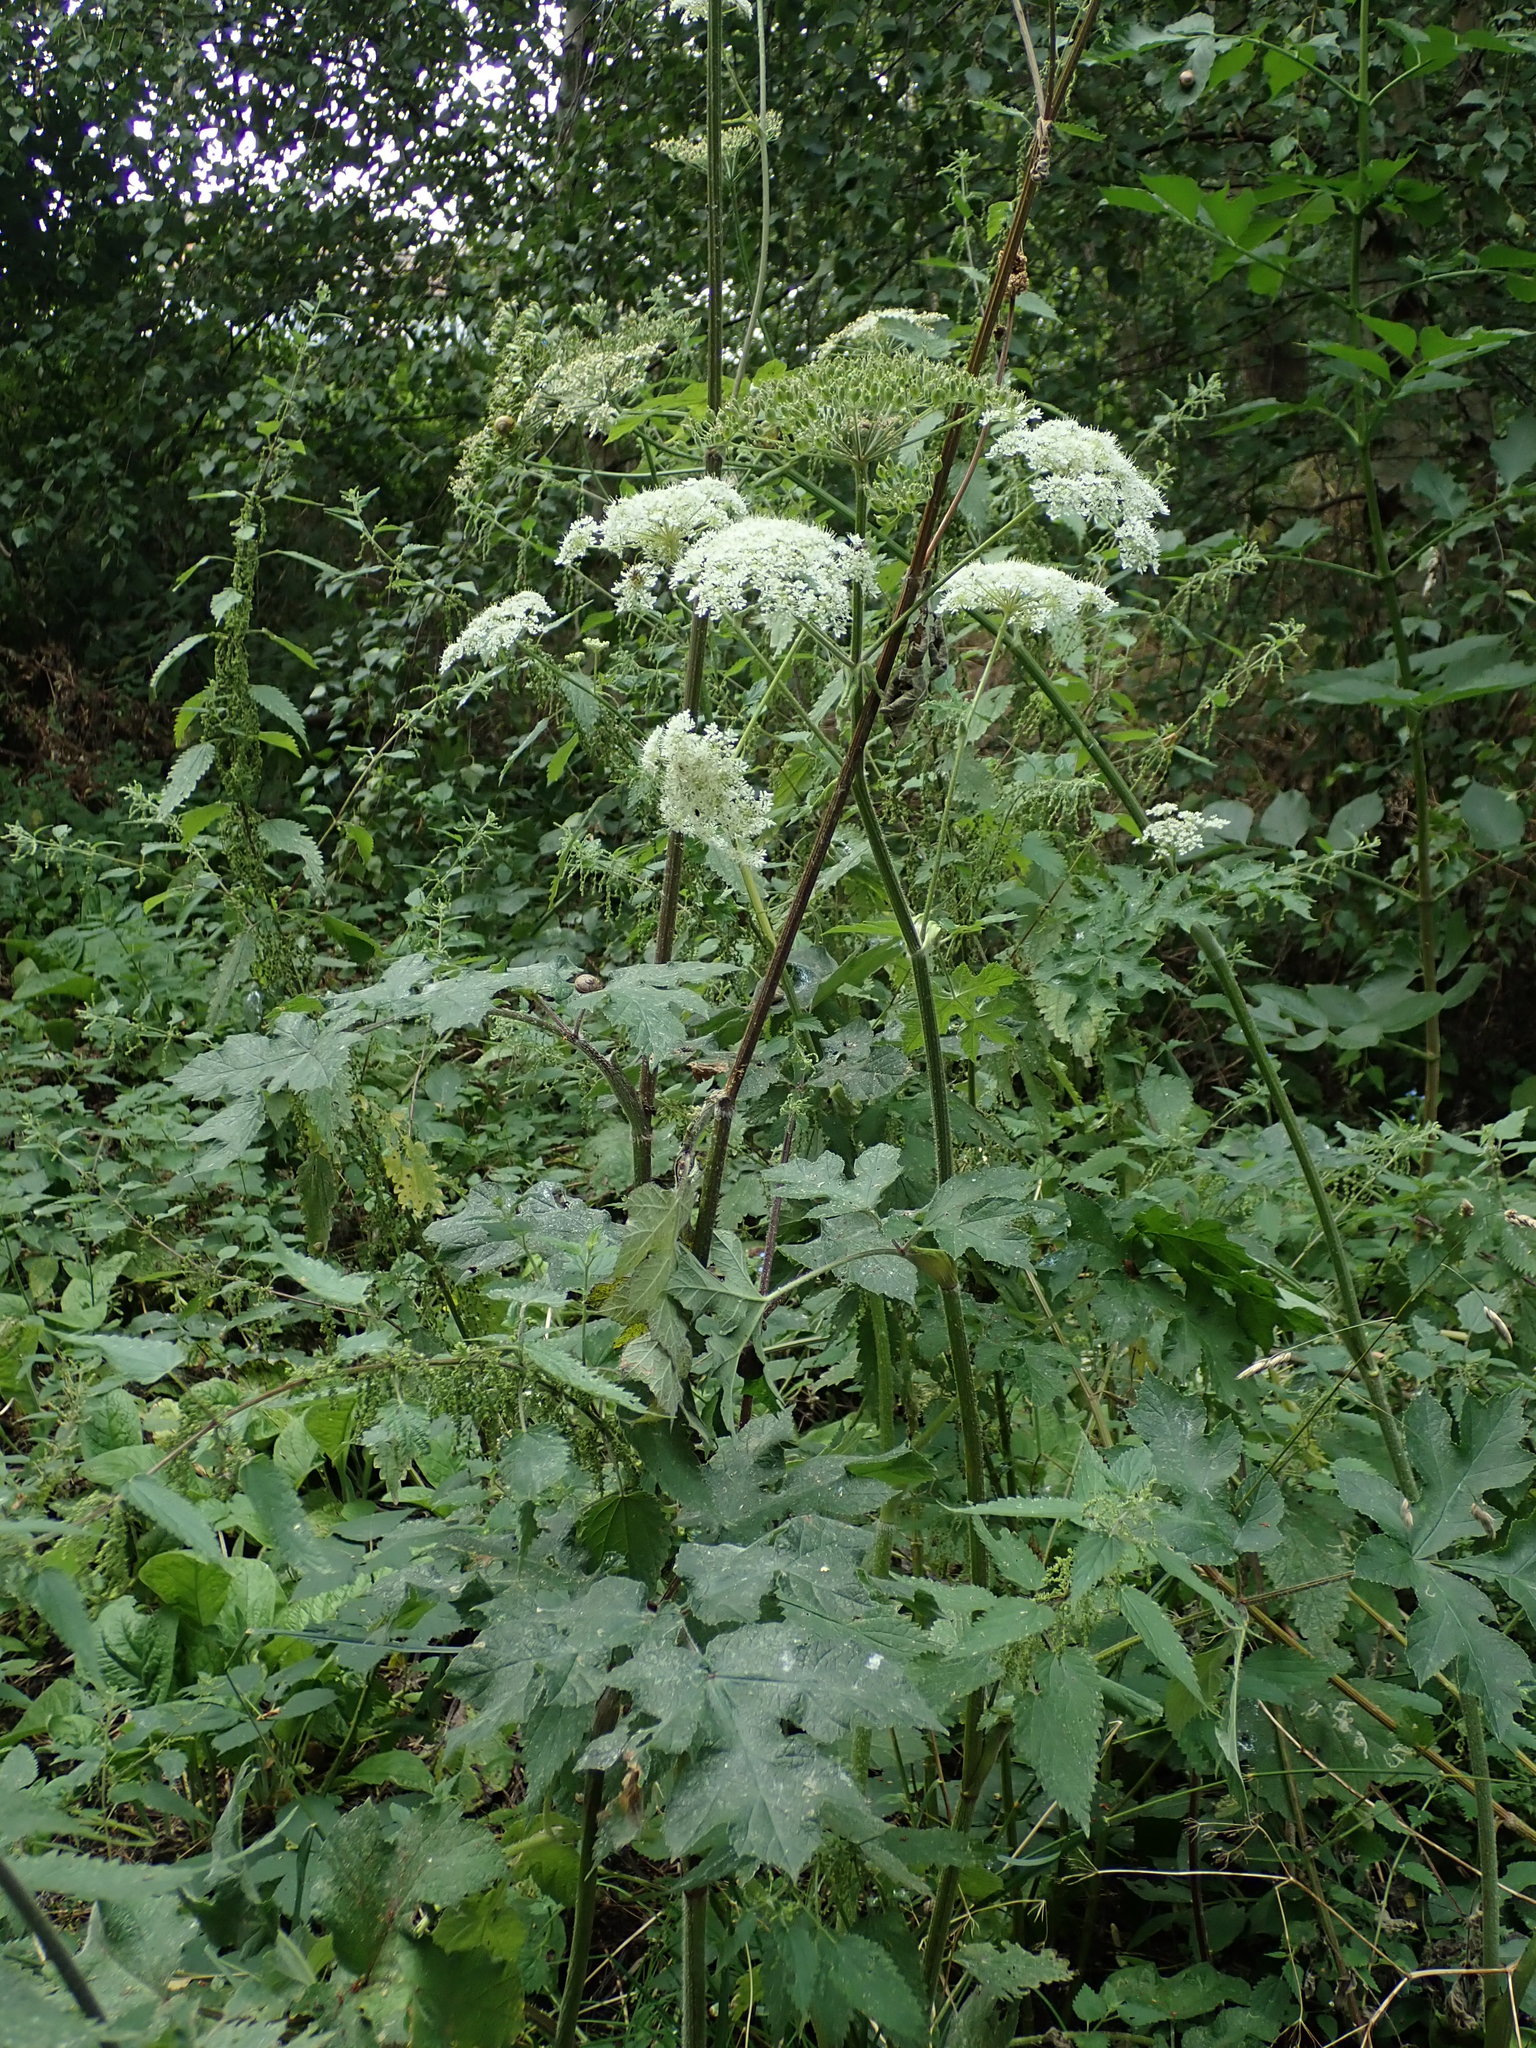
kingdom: Plantae
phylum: Tracheophyta
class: Magnoliopsida
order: Apiales
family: Apiaceae
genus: Heracleum
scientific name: Heracleum sphondylium
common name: Hogweed
